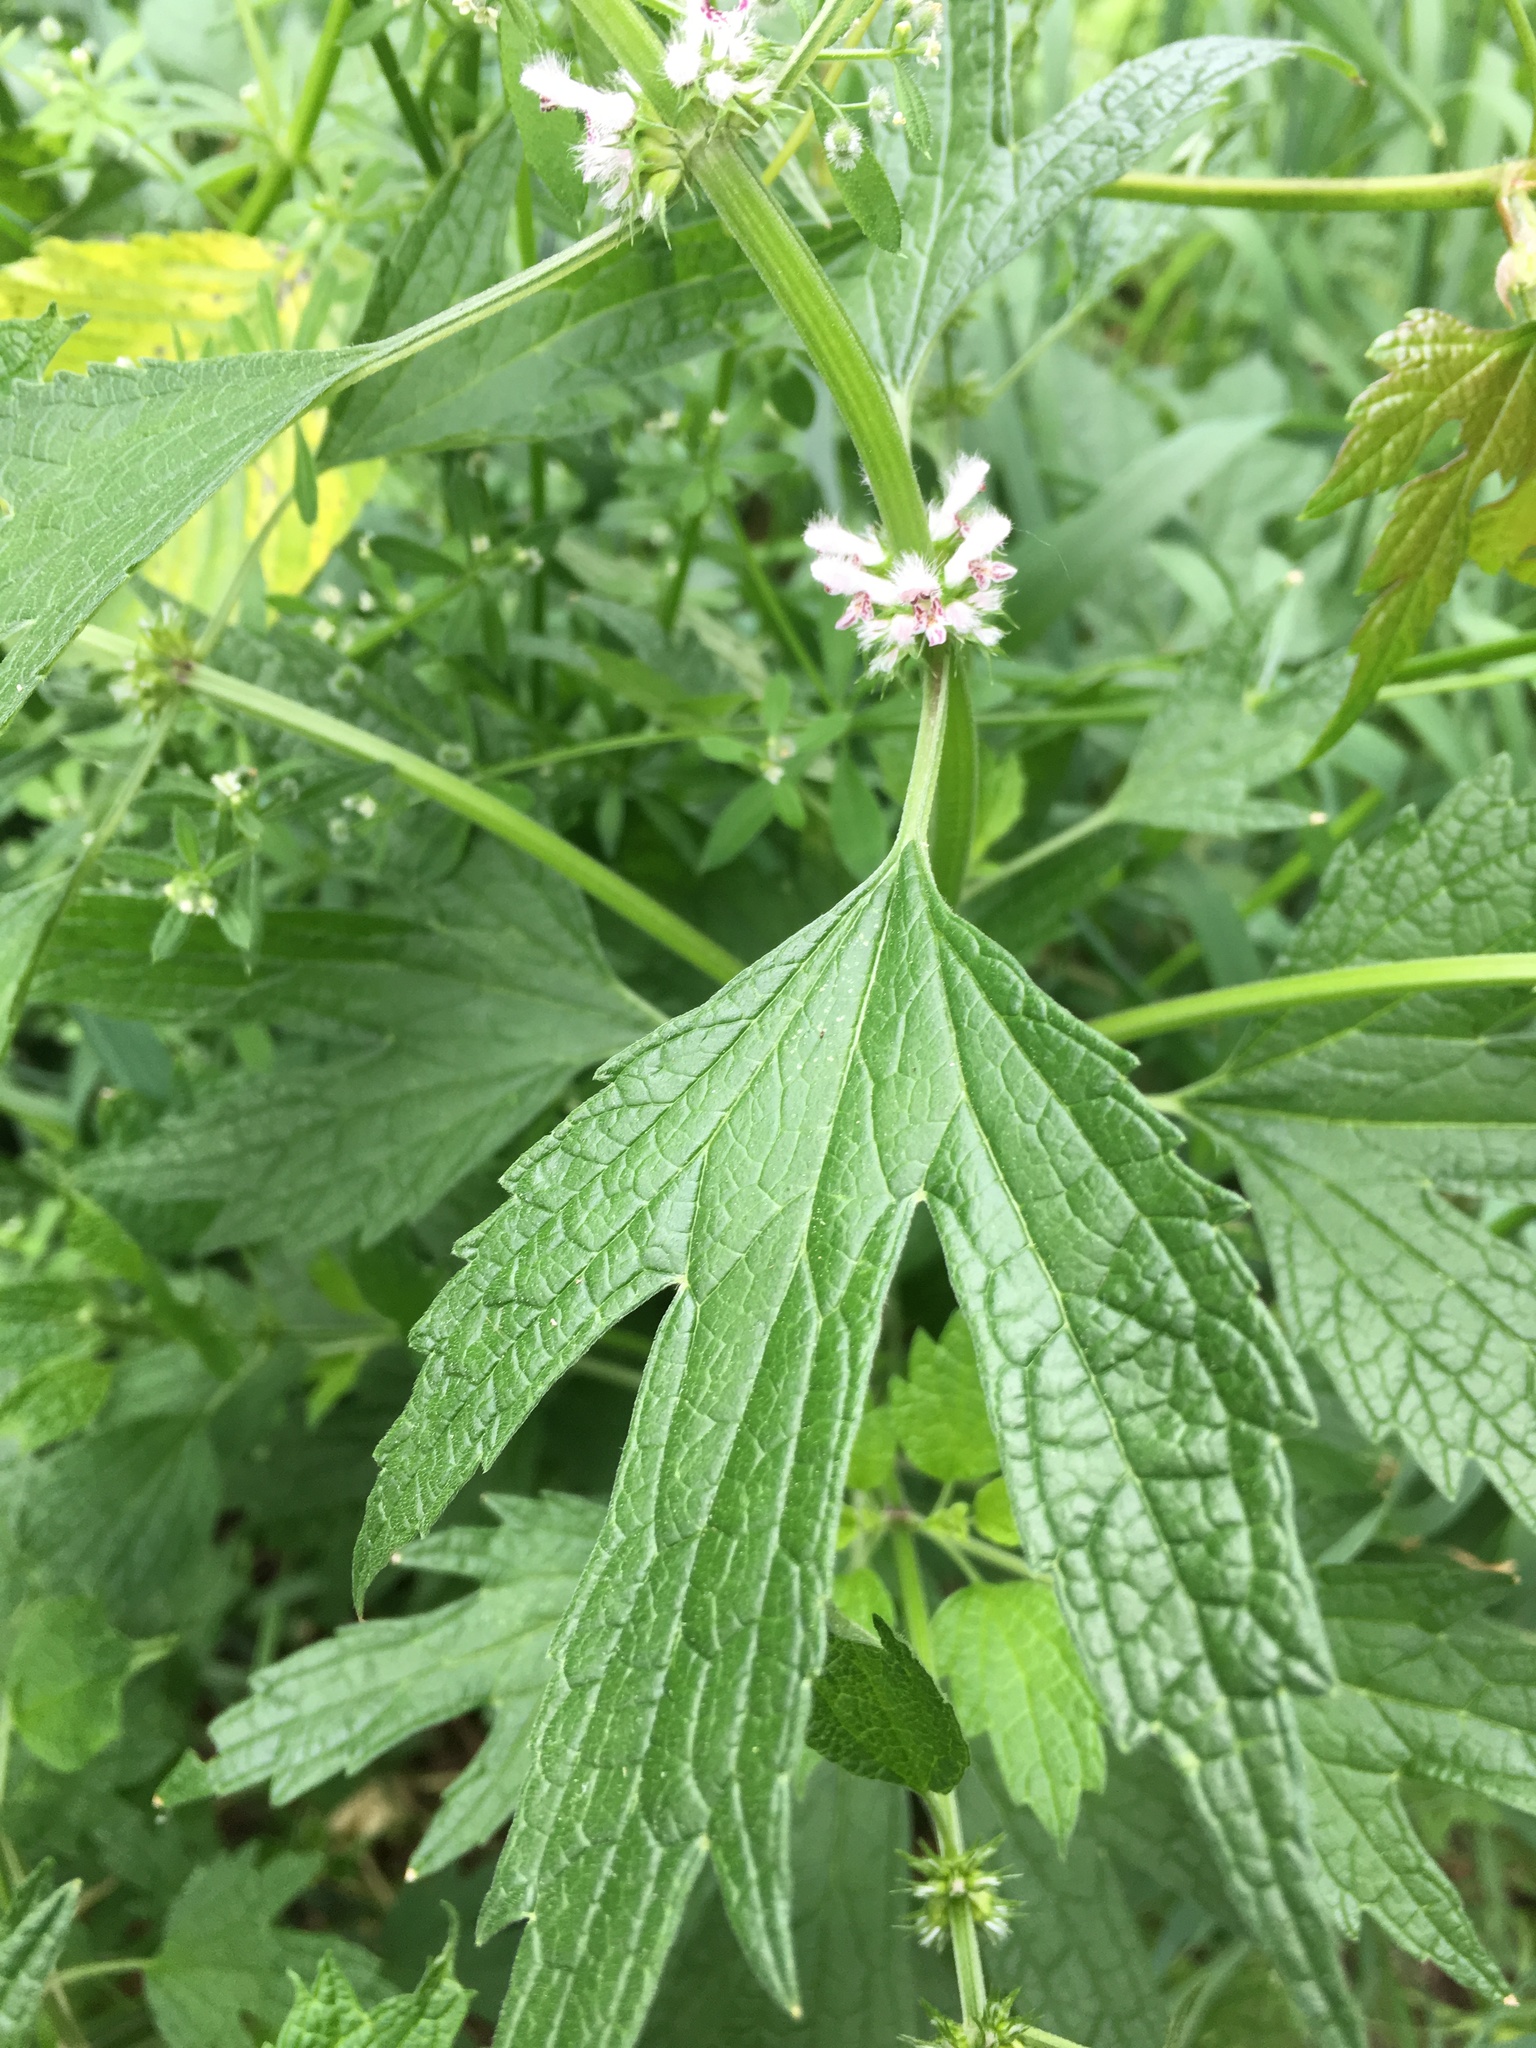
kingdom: Plantae
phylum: Tracheophyta
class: Magnoliopsida
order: Lamiales
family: Lamiaceae
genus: Leonurus
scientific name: Leonurus cardiaca
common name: Motherwort
